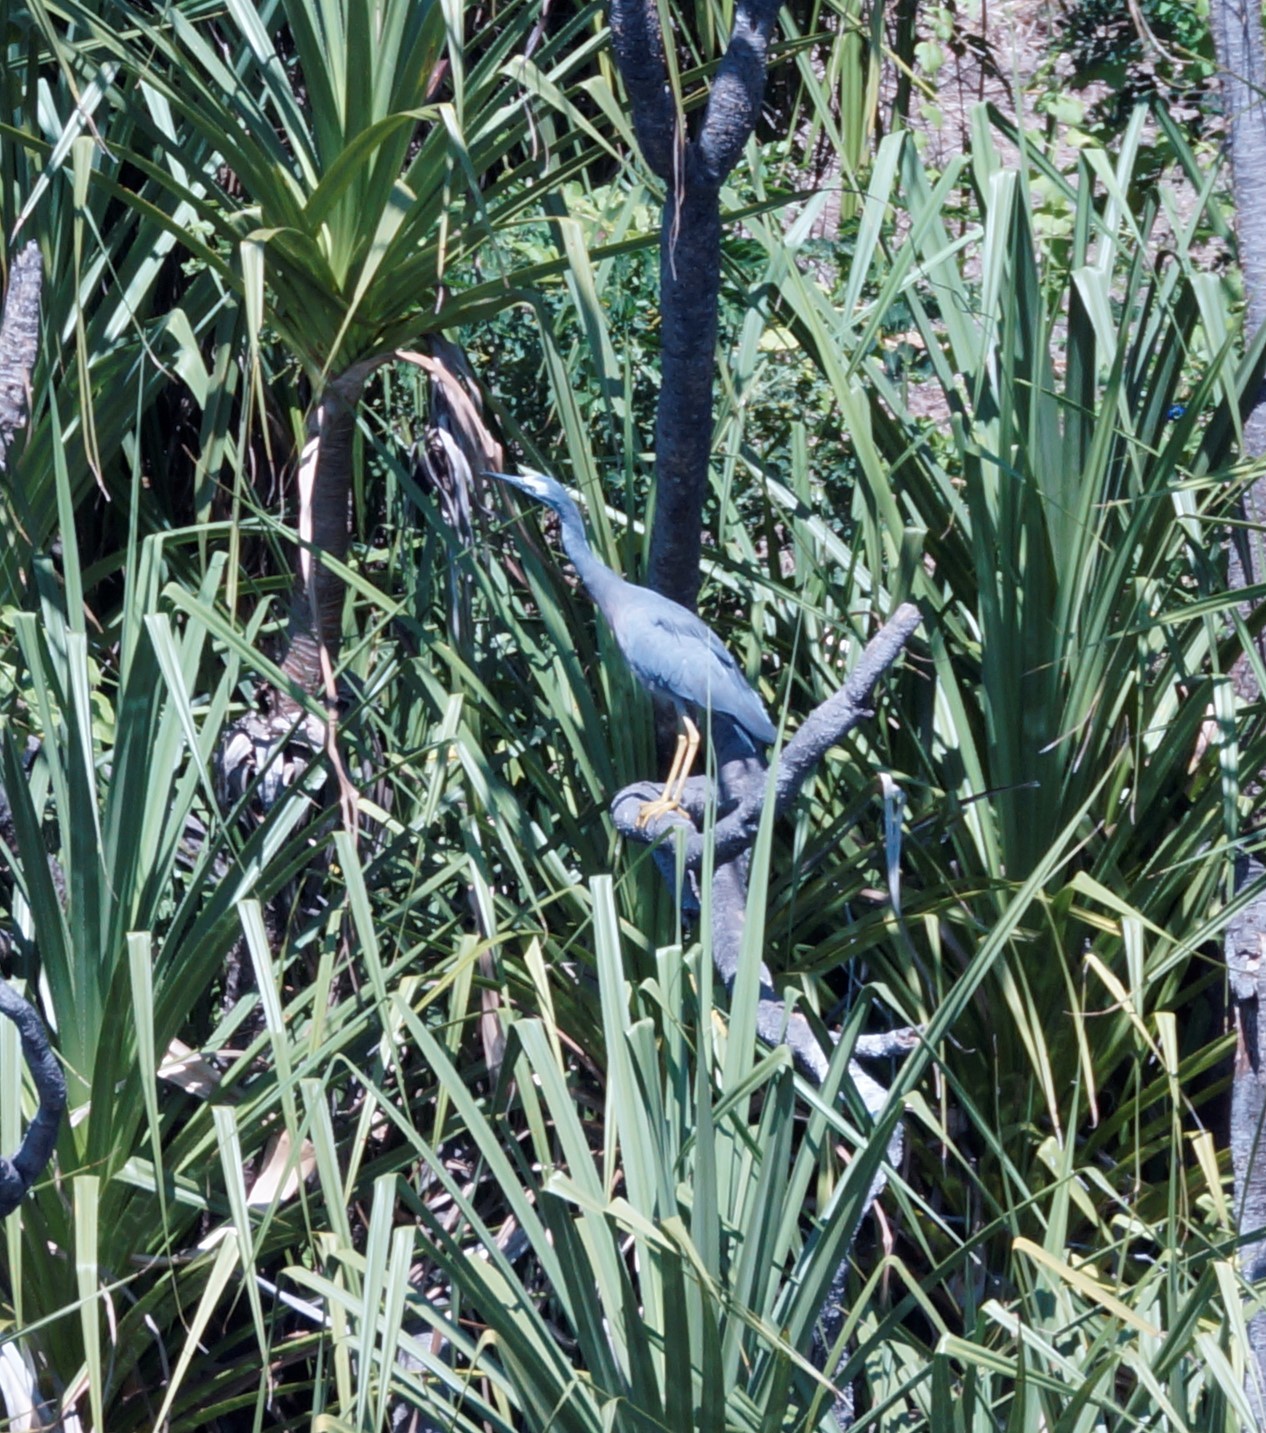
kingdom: Animalia
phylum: Chordata
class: Aves
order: Pelecaniformes
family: Ardeidae
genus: Egretta
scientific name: Egretta novaehollandiae
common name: White-faced heron
